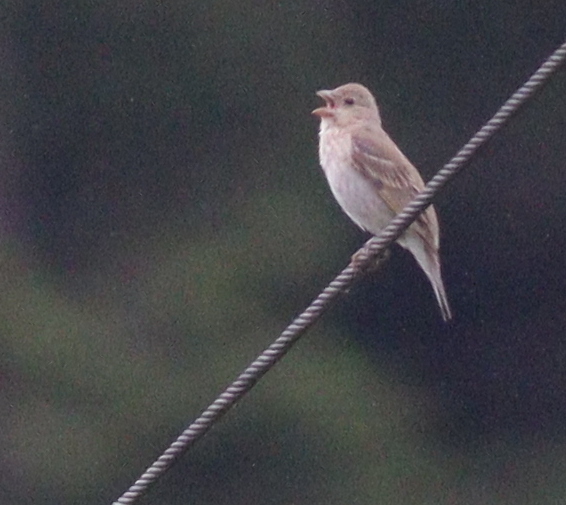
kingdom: Animalia
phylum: Chordata
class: Aves
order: Passeriformes
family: Fringillidae
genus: Carpodacus
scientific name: Carpodacus erythrinus
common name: Common rosefinch
